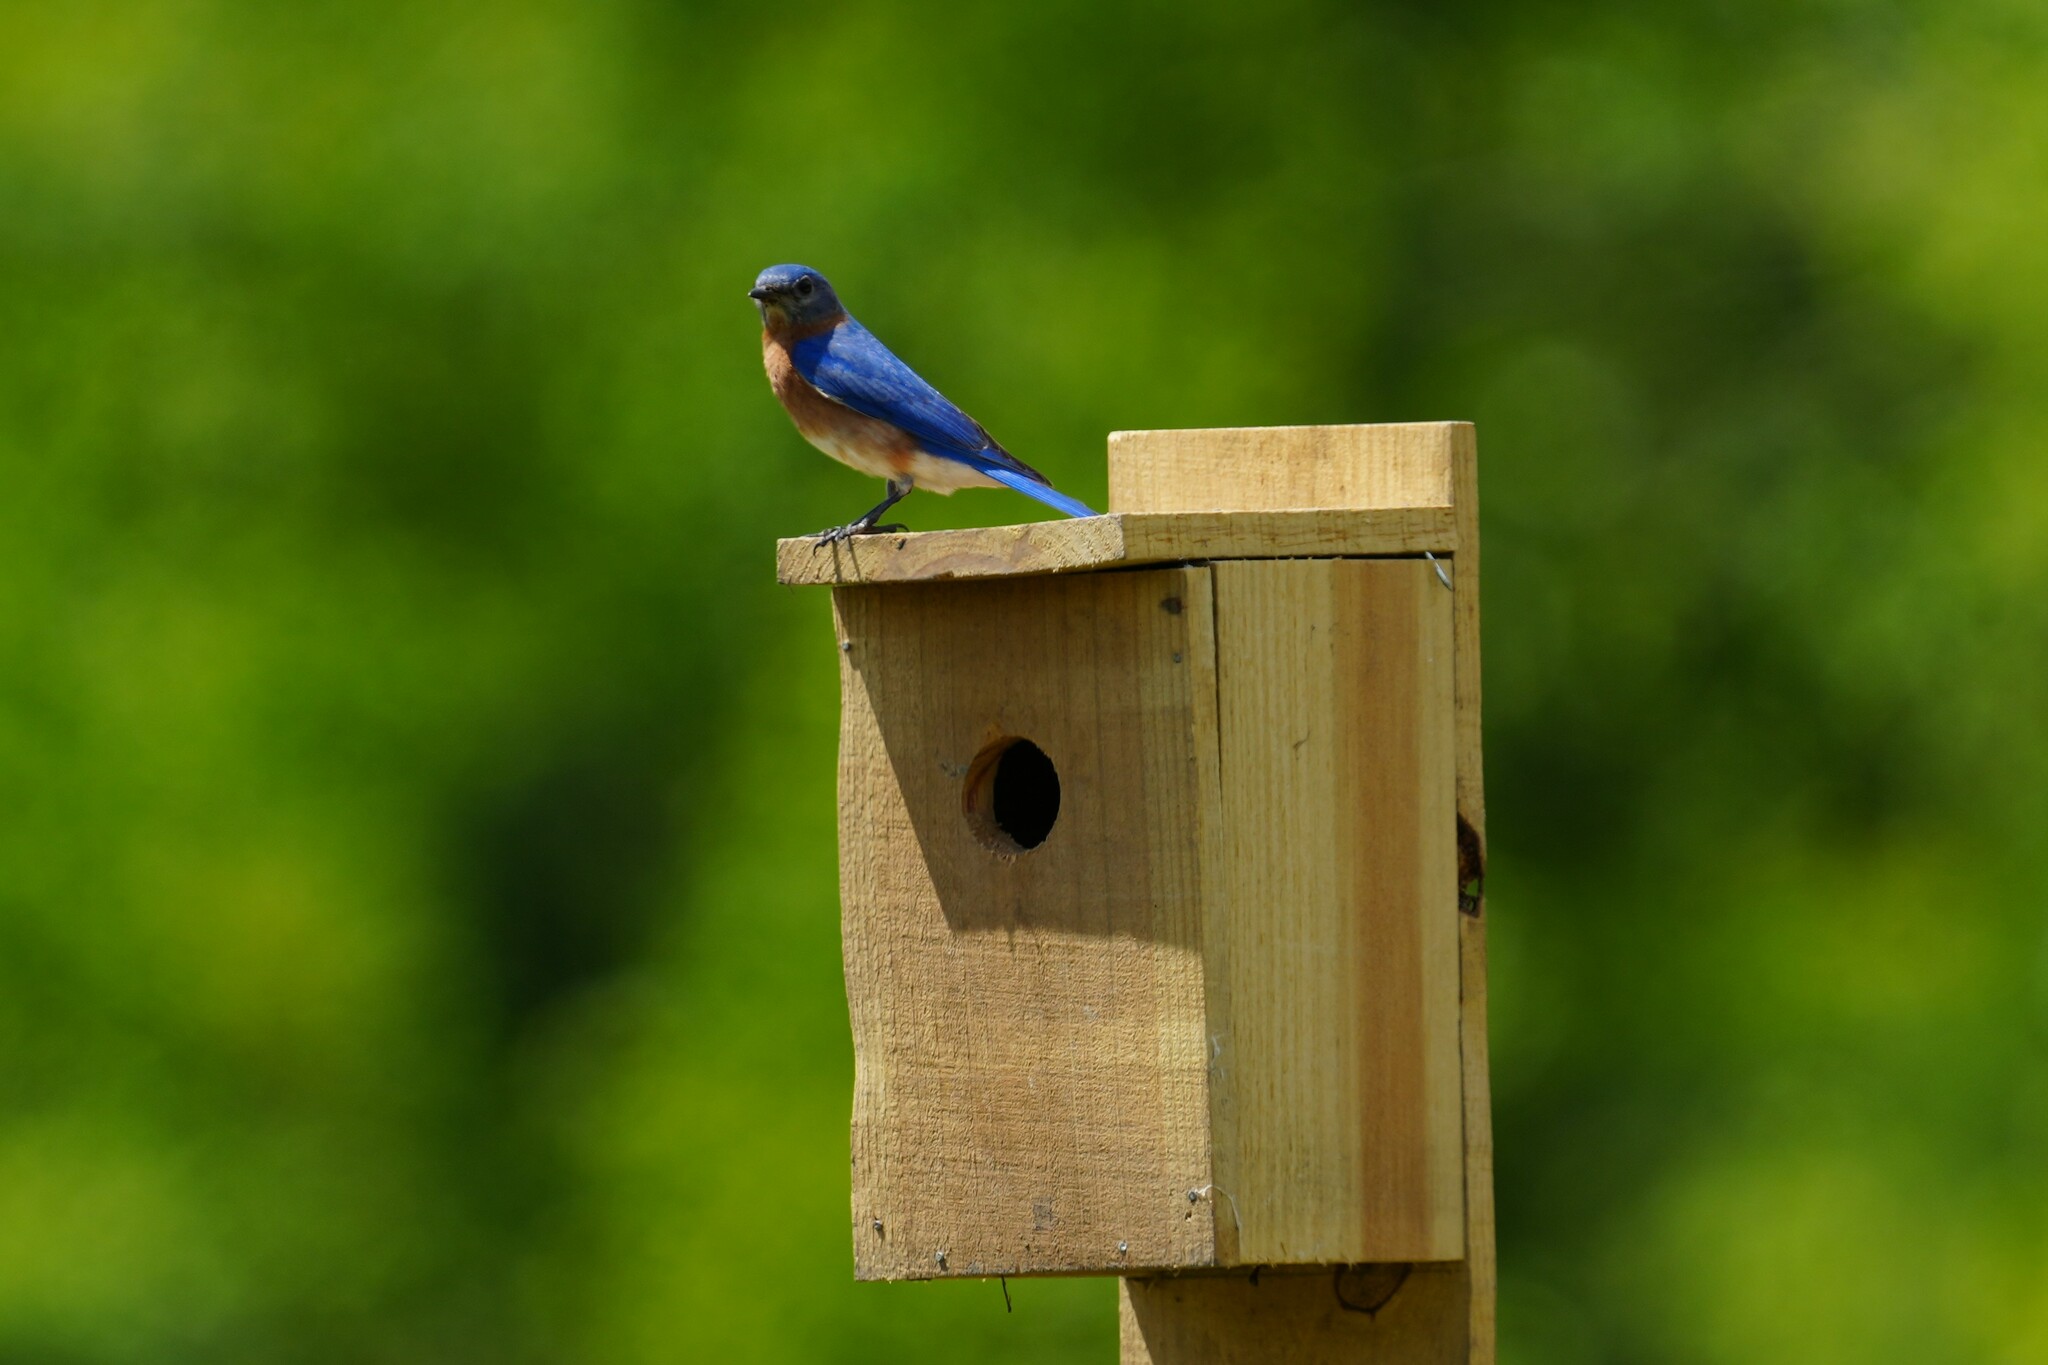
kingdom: Animalia
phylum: Chordata
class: Aves
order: Passeriformes
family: Turdidae
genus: Sialia
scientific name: Sialia sialis
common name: Eastern bluebird
